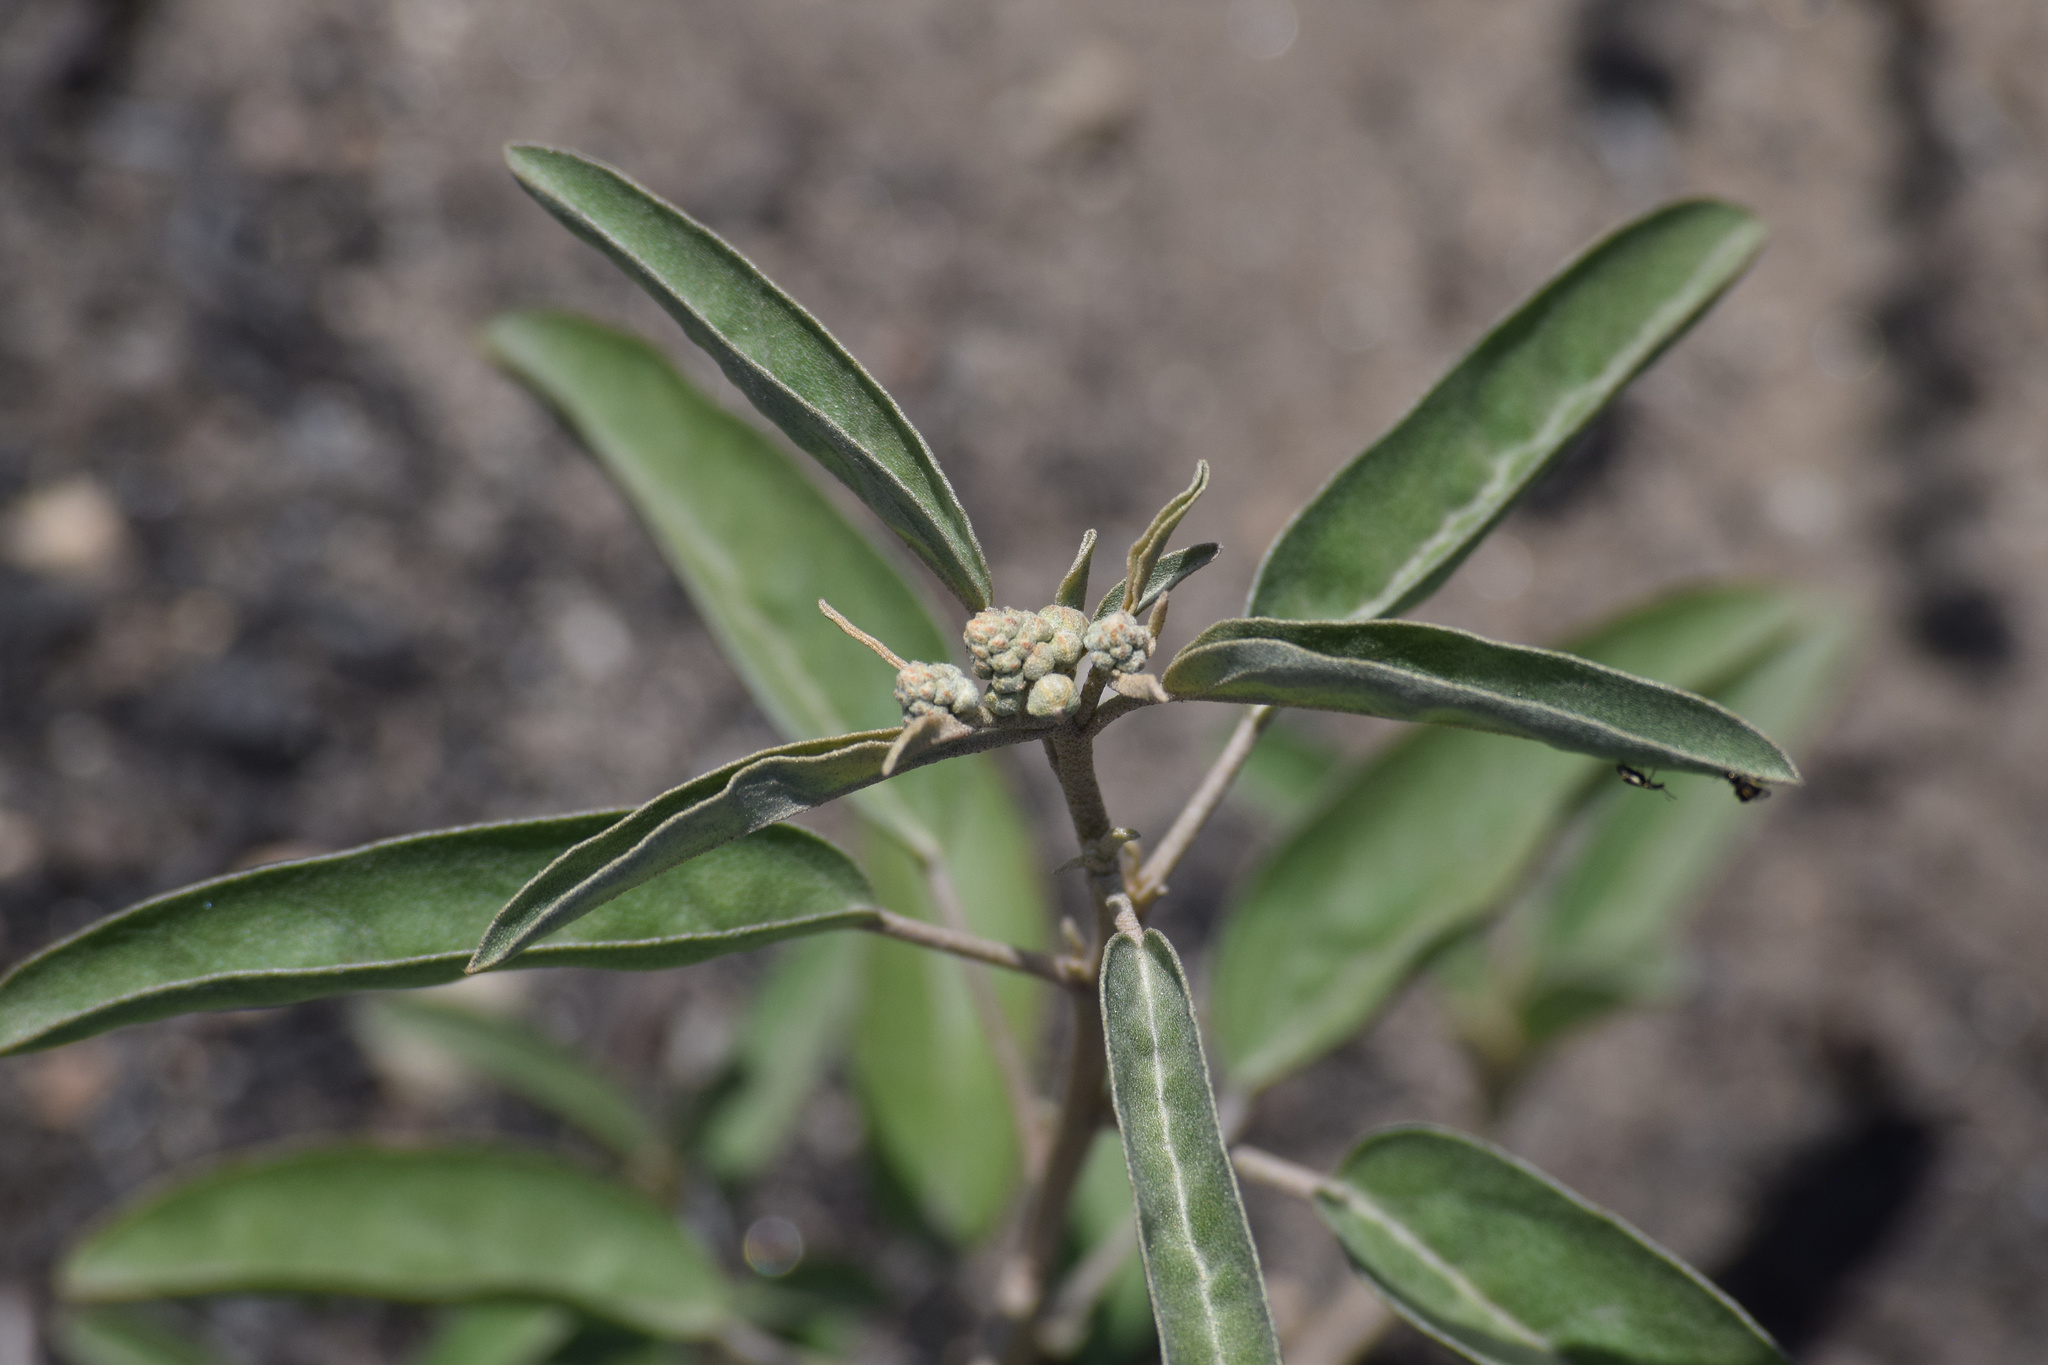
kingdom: Plantae
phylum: Tracheophyta
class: Magnoliopsida
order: Malpighiales
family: Euphorbiaceae
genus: Croton
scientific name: Croton californicus
